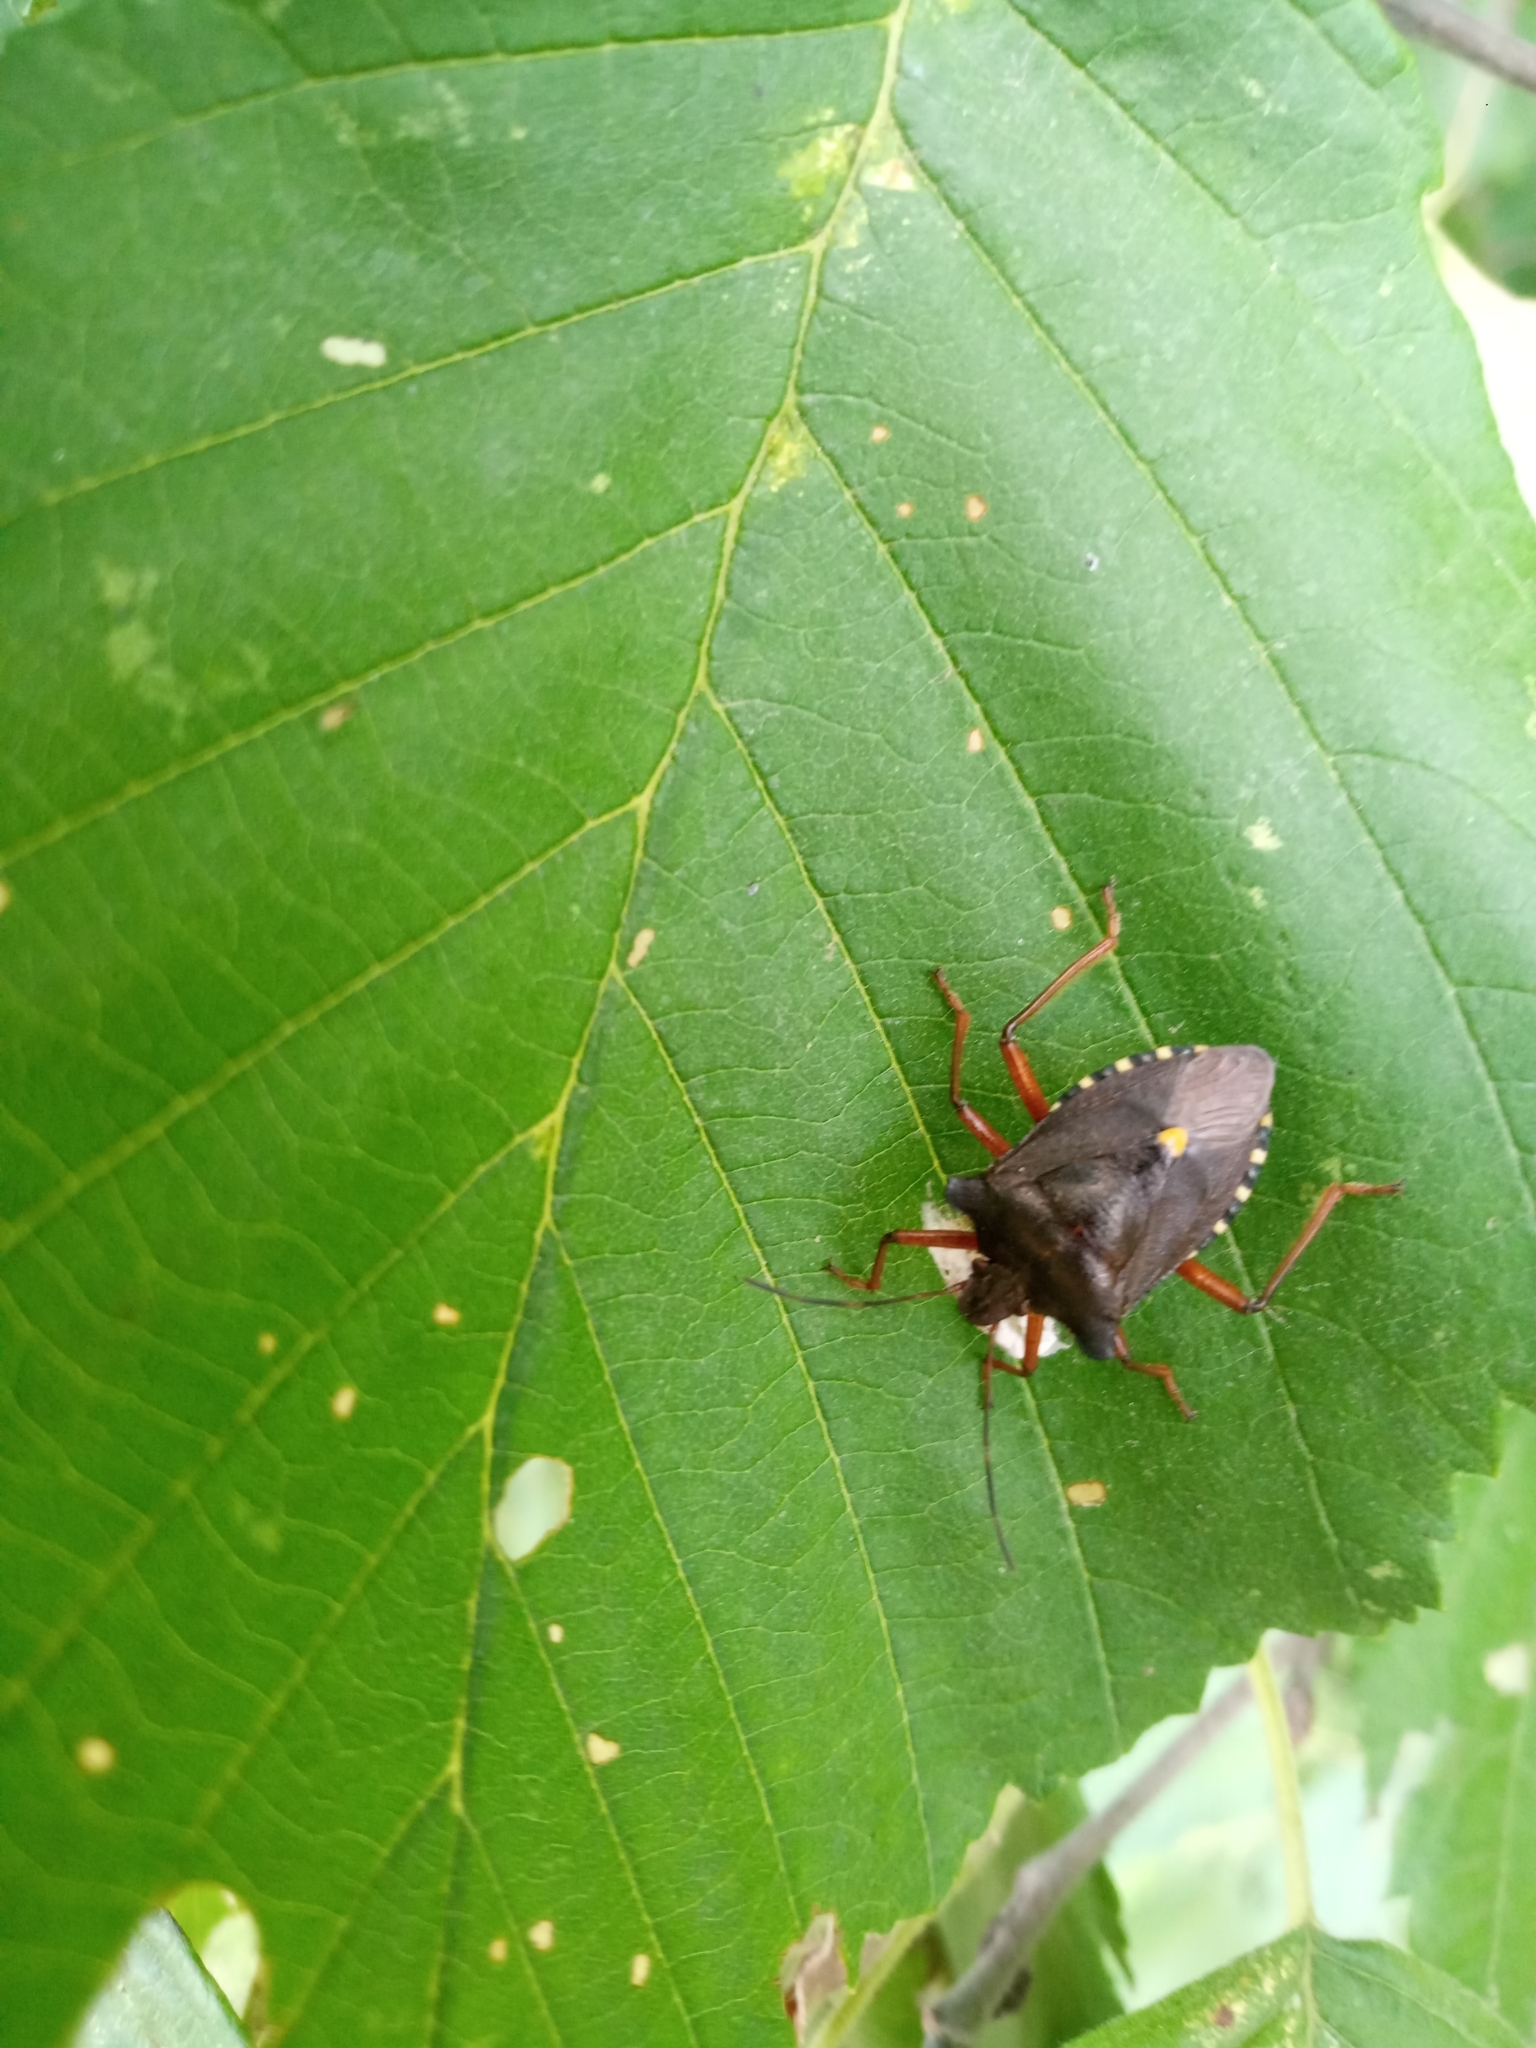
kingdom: Animalia
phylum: Arthropoda
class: Insecta
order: Hemiptera
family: Pentatomidae
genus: Pentatoma
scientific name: Pentatoma rufipes
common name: Forest bug
